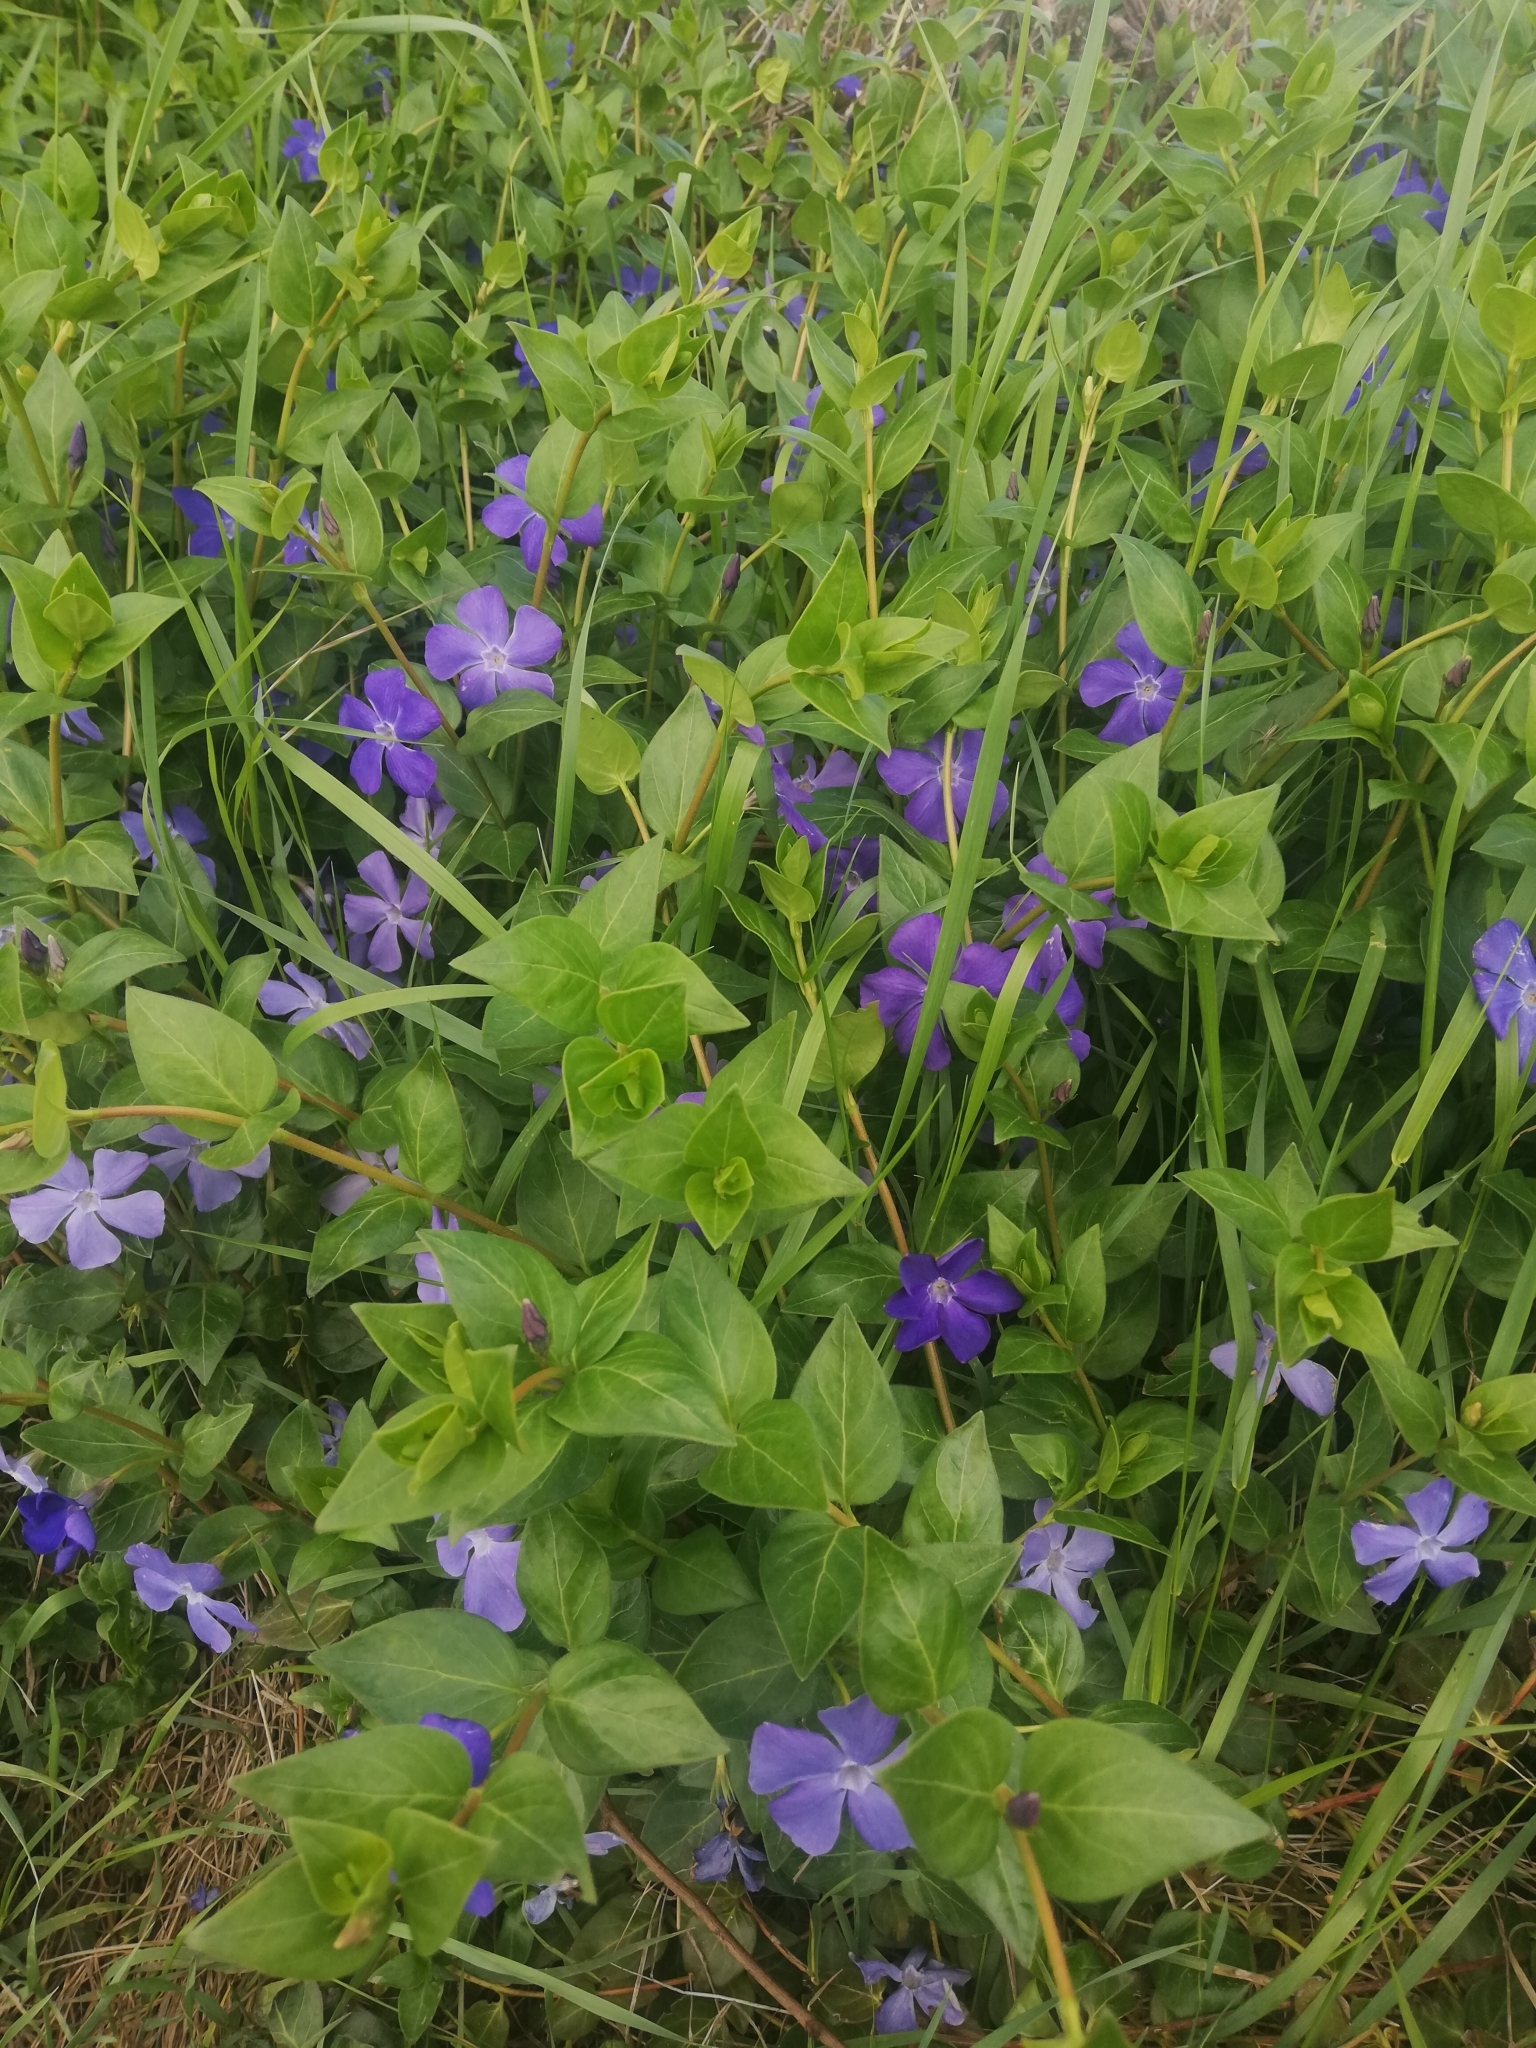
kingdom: Plantae
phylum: Tracheophyta
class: Magnoliopsida
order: Gentianales
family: Apocynaceae
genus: Vinca
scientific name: Vinca major
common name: Greater periwinkle
